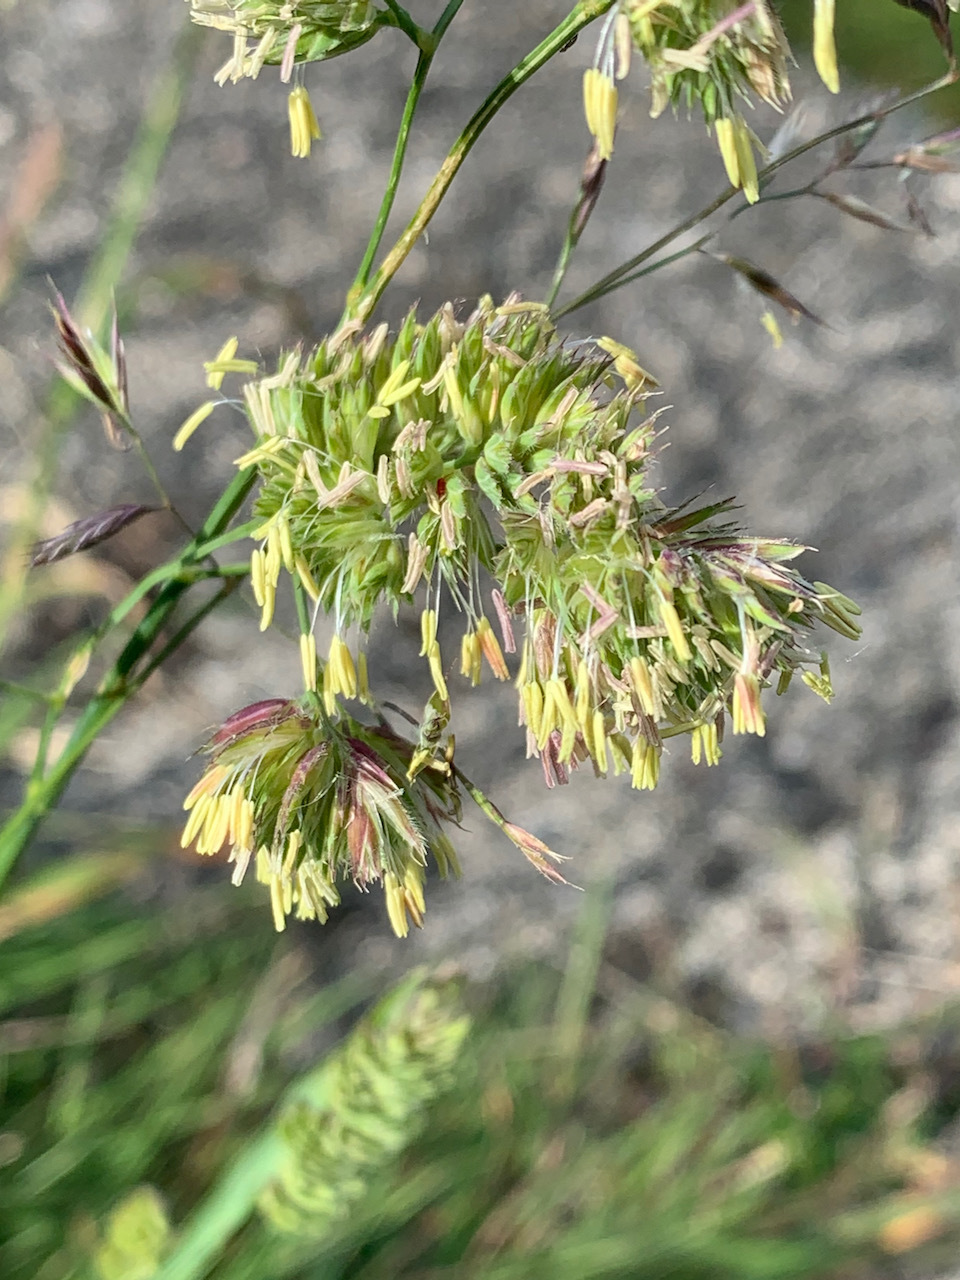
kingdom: Plantae
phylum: Tracheophyta
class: Liliopsida
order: Poales
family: Poaceae
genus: Dactylis
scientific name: Dactylis glomerata
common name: Orchardgrass
